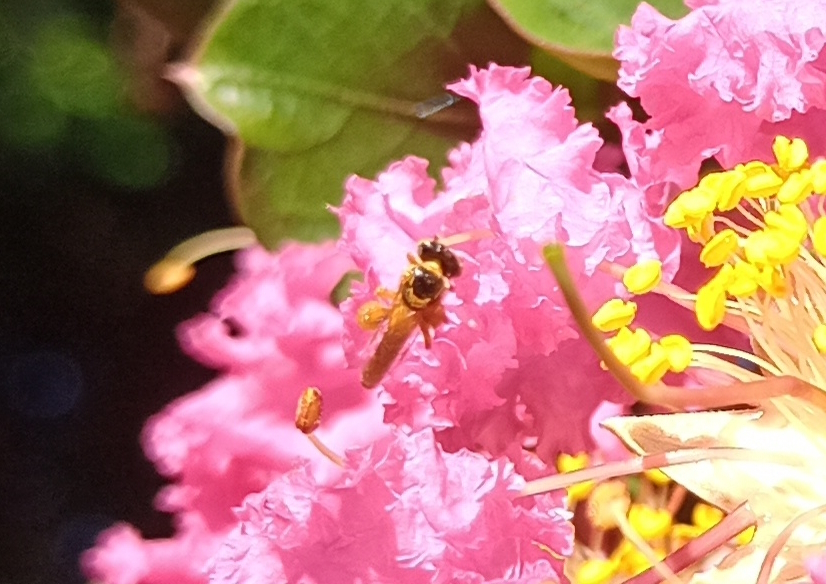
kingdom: Animalia
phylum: Arthropoda
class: Insecta
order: Hymenoptera
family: Apidae
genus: Tetragonisca
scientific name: Tetragonisca angustula
